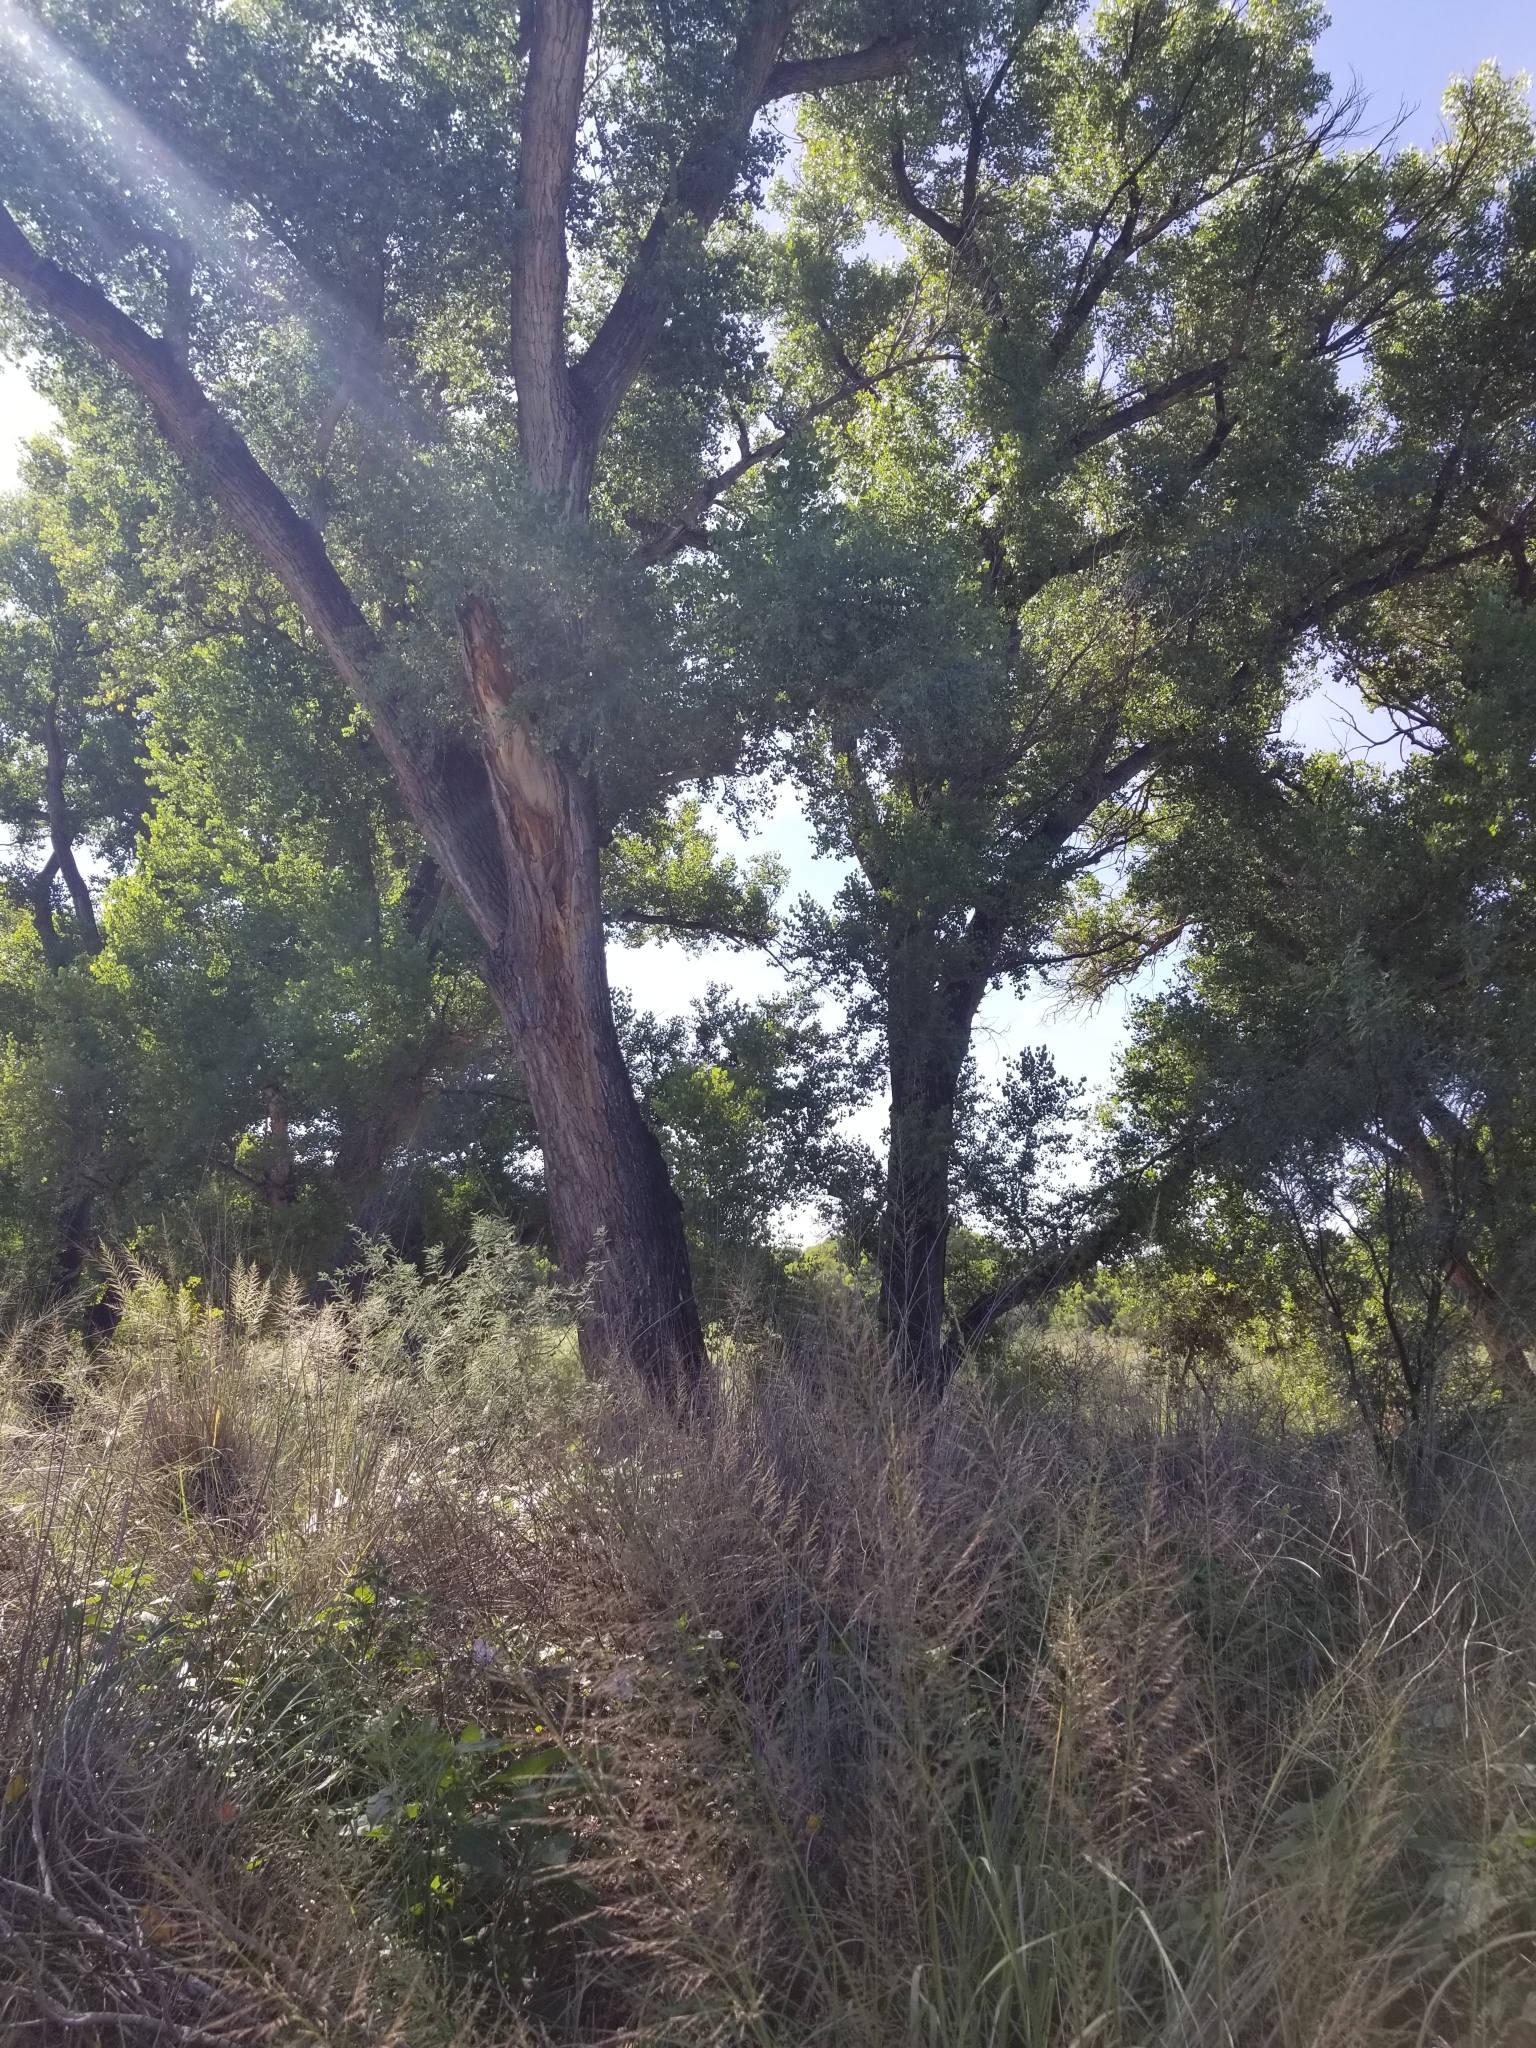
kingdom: Plantae
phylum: Tracheophyta
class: Magnoliopsida
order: Malpighiales
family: Salicaceae
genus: Populus
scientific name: Populus fremontii
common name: Fremont's cottonwood
